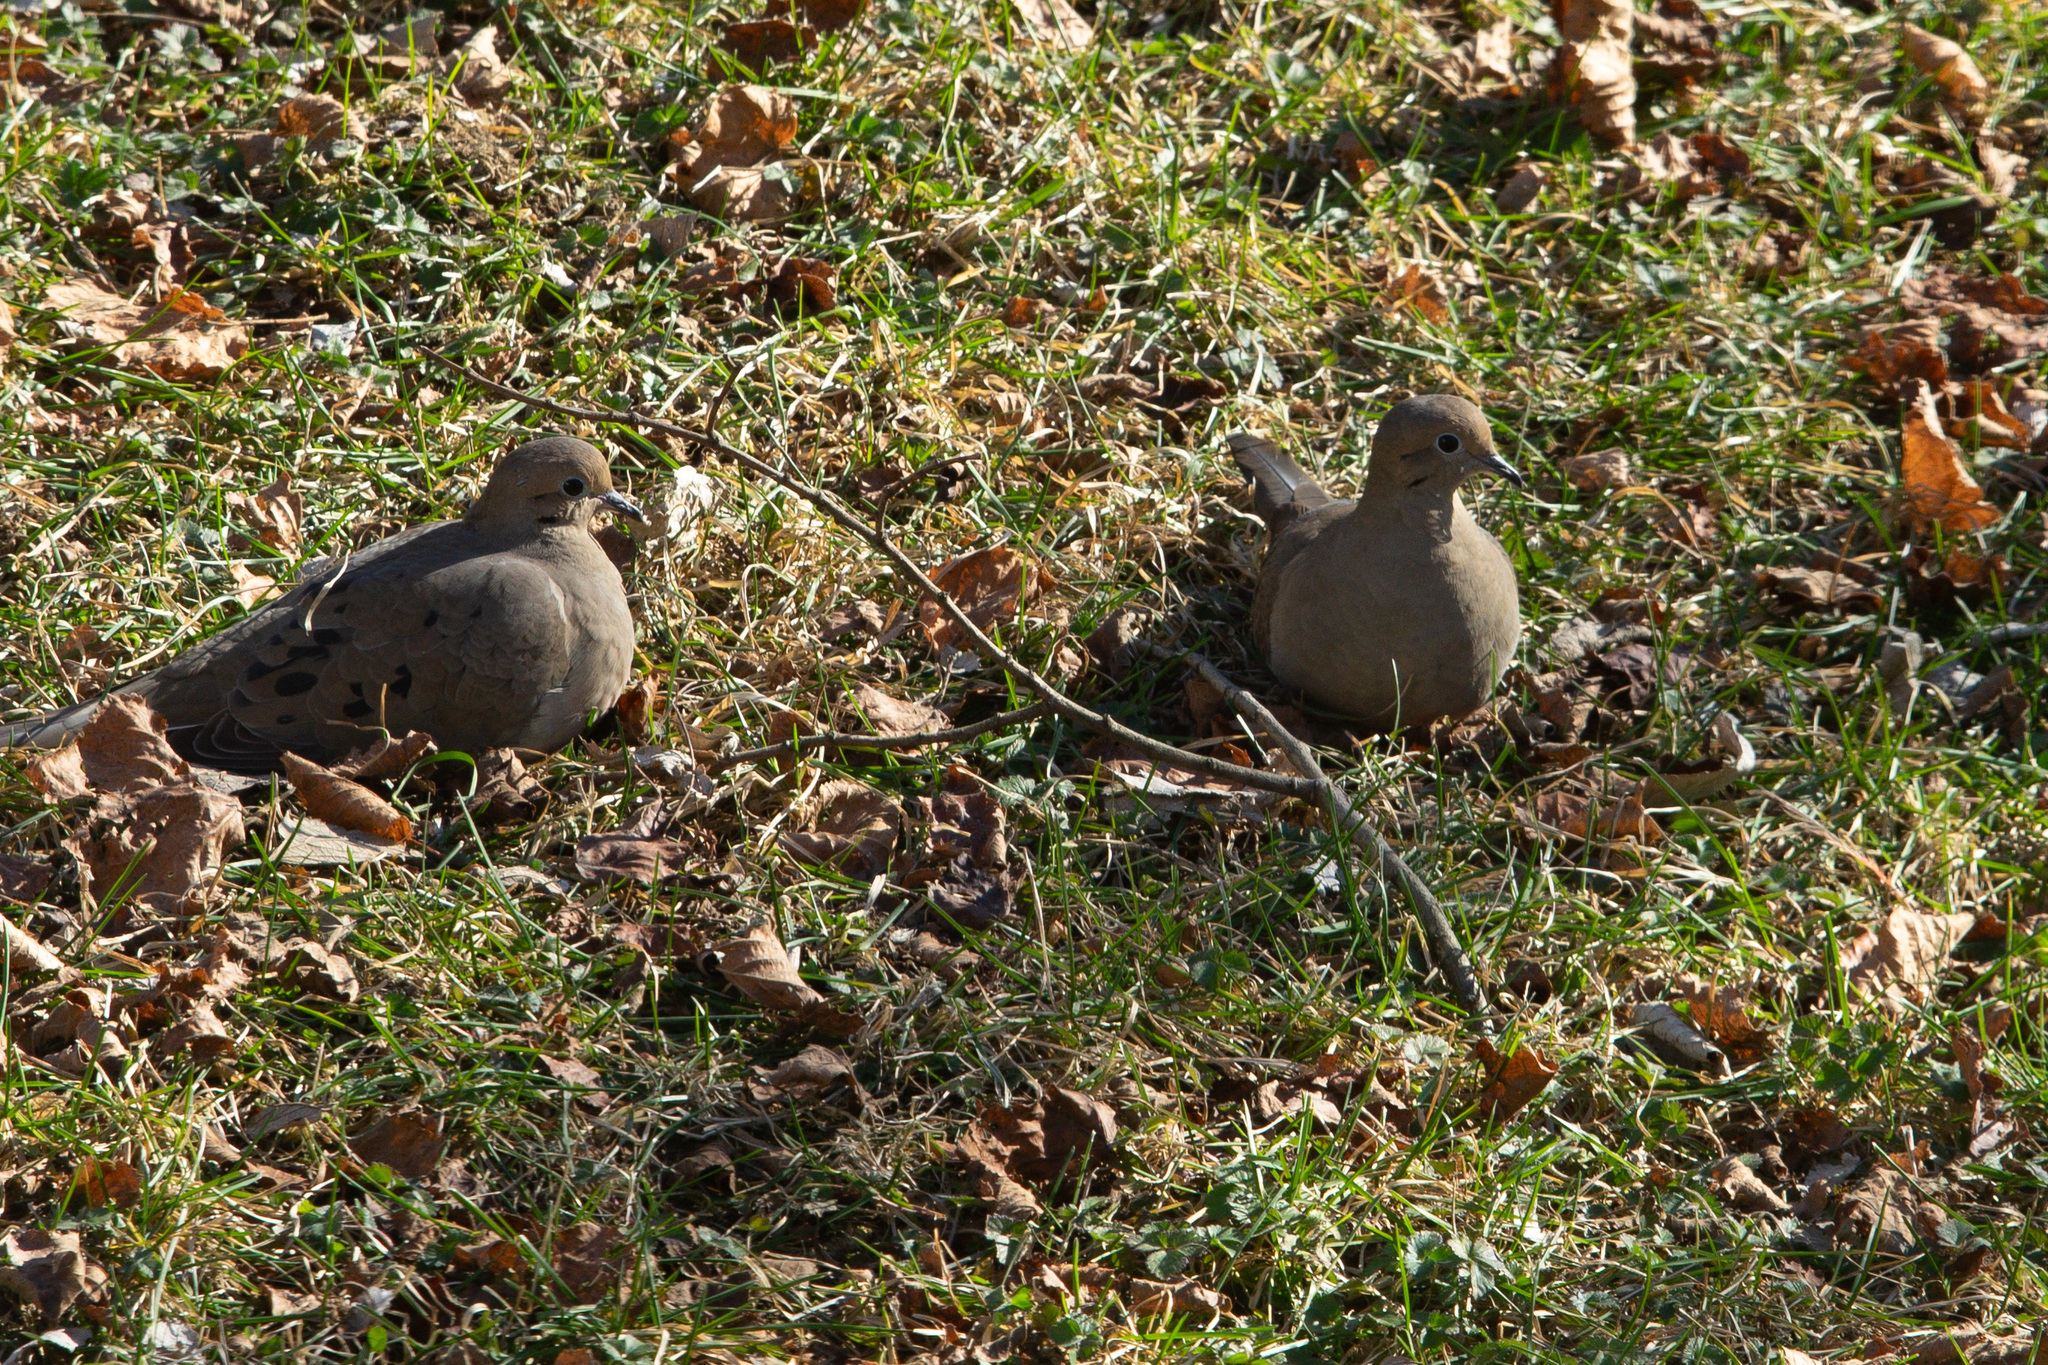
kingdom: Animalia
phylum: Chordata
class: Aves
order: Columbiformes
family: Columbidae
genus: Zenaida
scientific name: Zenaida macroura
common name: Mourning dove
